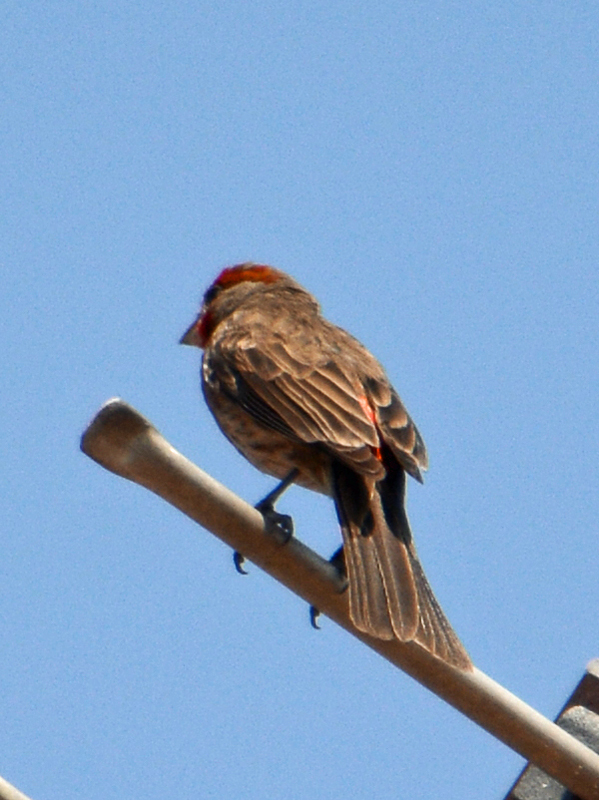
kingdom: Animalia
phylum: Chordata
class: Aves
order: Passeriformes
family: Fringillidae
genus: Haemorhous
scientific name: Haemorhous mexicanus
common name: House finch
